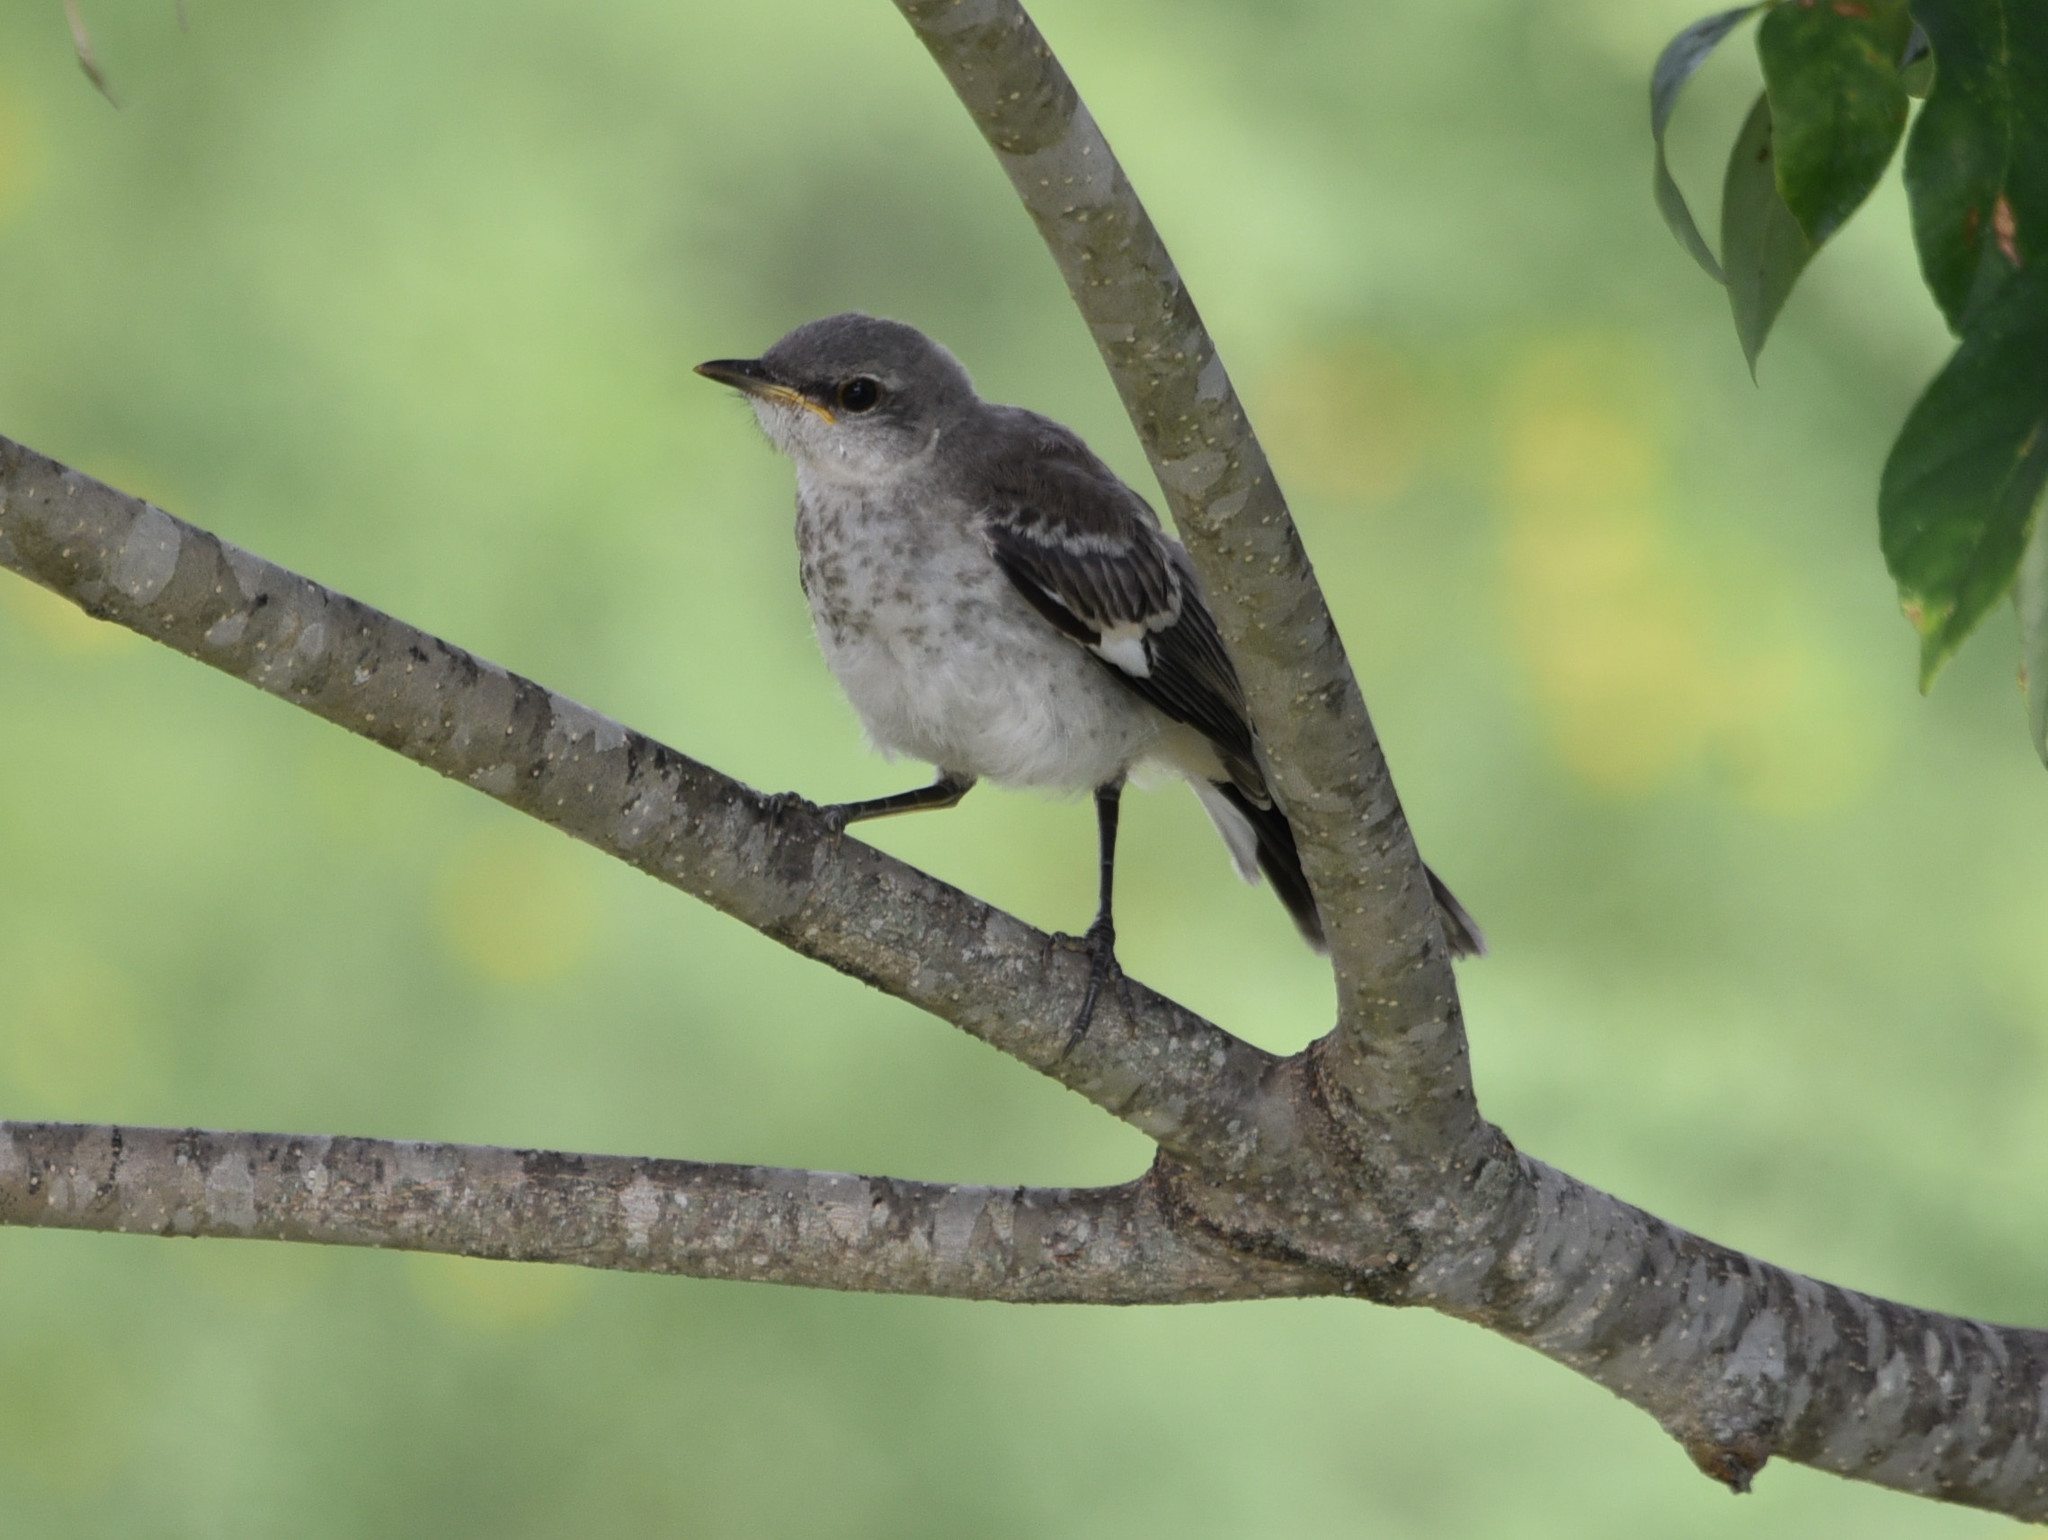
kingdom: Animalia
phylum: Chordata
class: Aves
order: Passeriformes
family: Mimidae
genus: Mimus
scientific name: Mimus polyglottos
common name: Northern mockingbird
